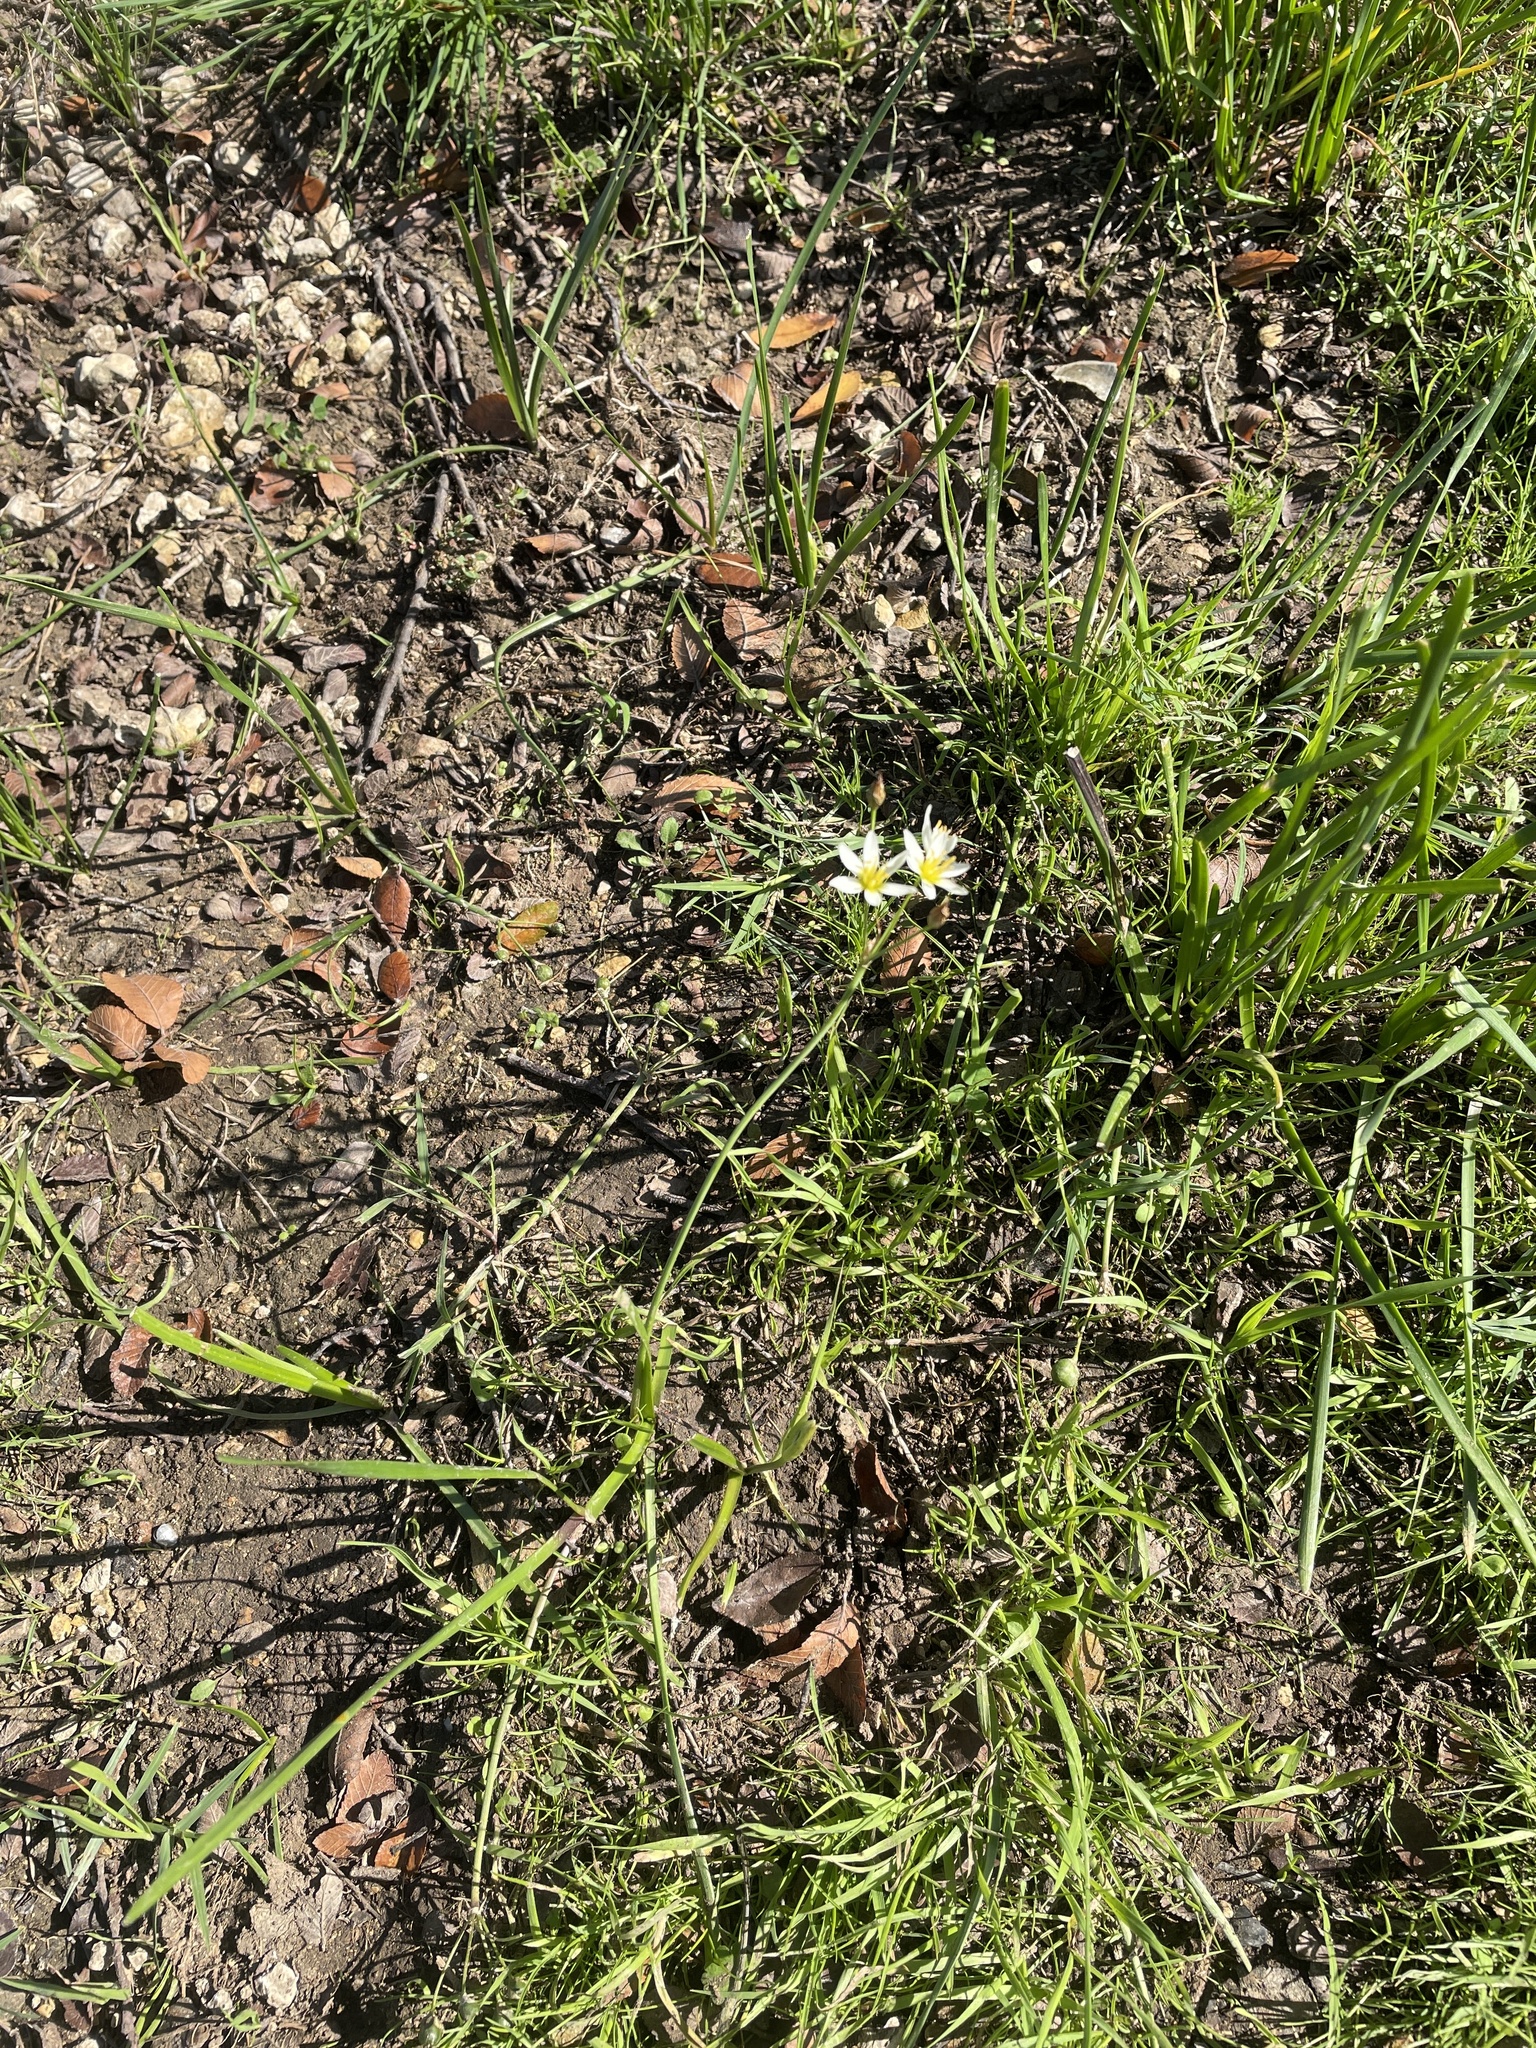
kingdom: Plantae
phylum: Tracheophyta
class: Liliopsida
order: Asparagales
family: Amaryllidaceae
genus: Nothoscordum
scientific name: Nothoscordum bivalve
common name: Crow-poison
